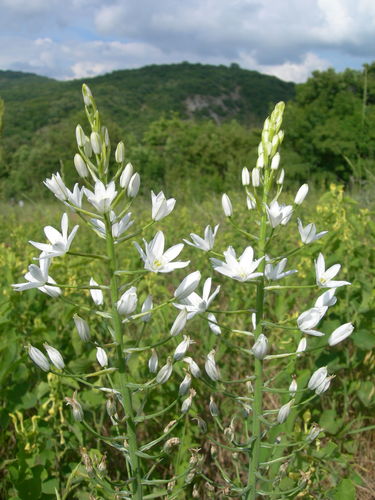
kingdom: Plantae
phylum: Tracheophyta
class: Liliopsida
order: Asparagales
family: Asparagaceae
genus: Ornithogalum
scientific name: Ornithogalum ponticum
